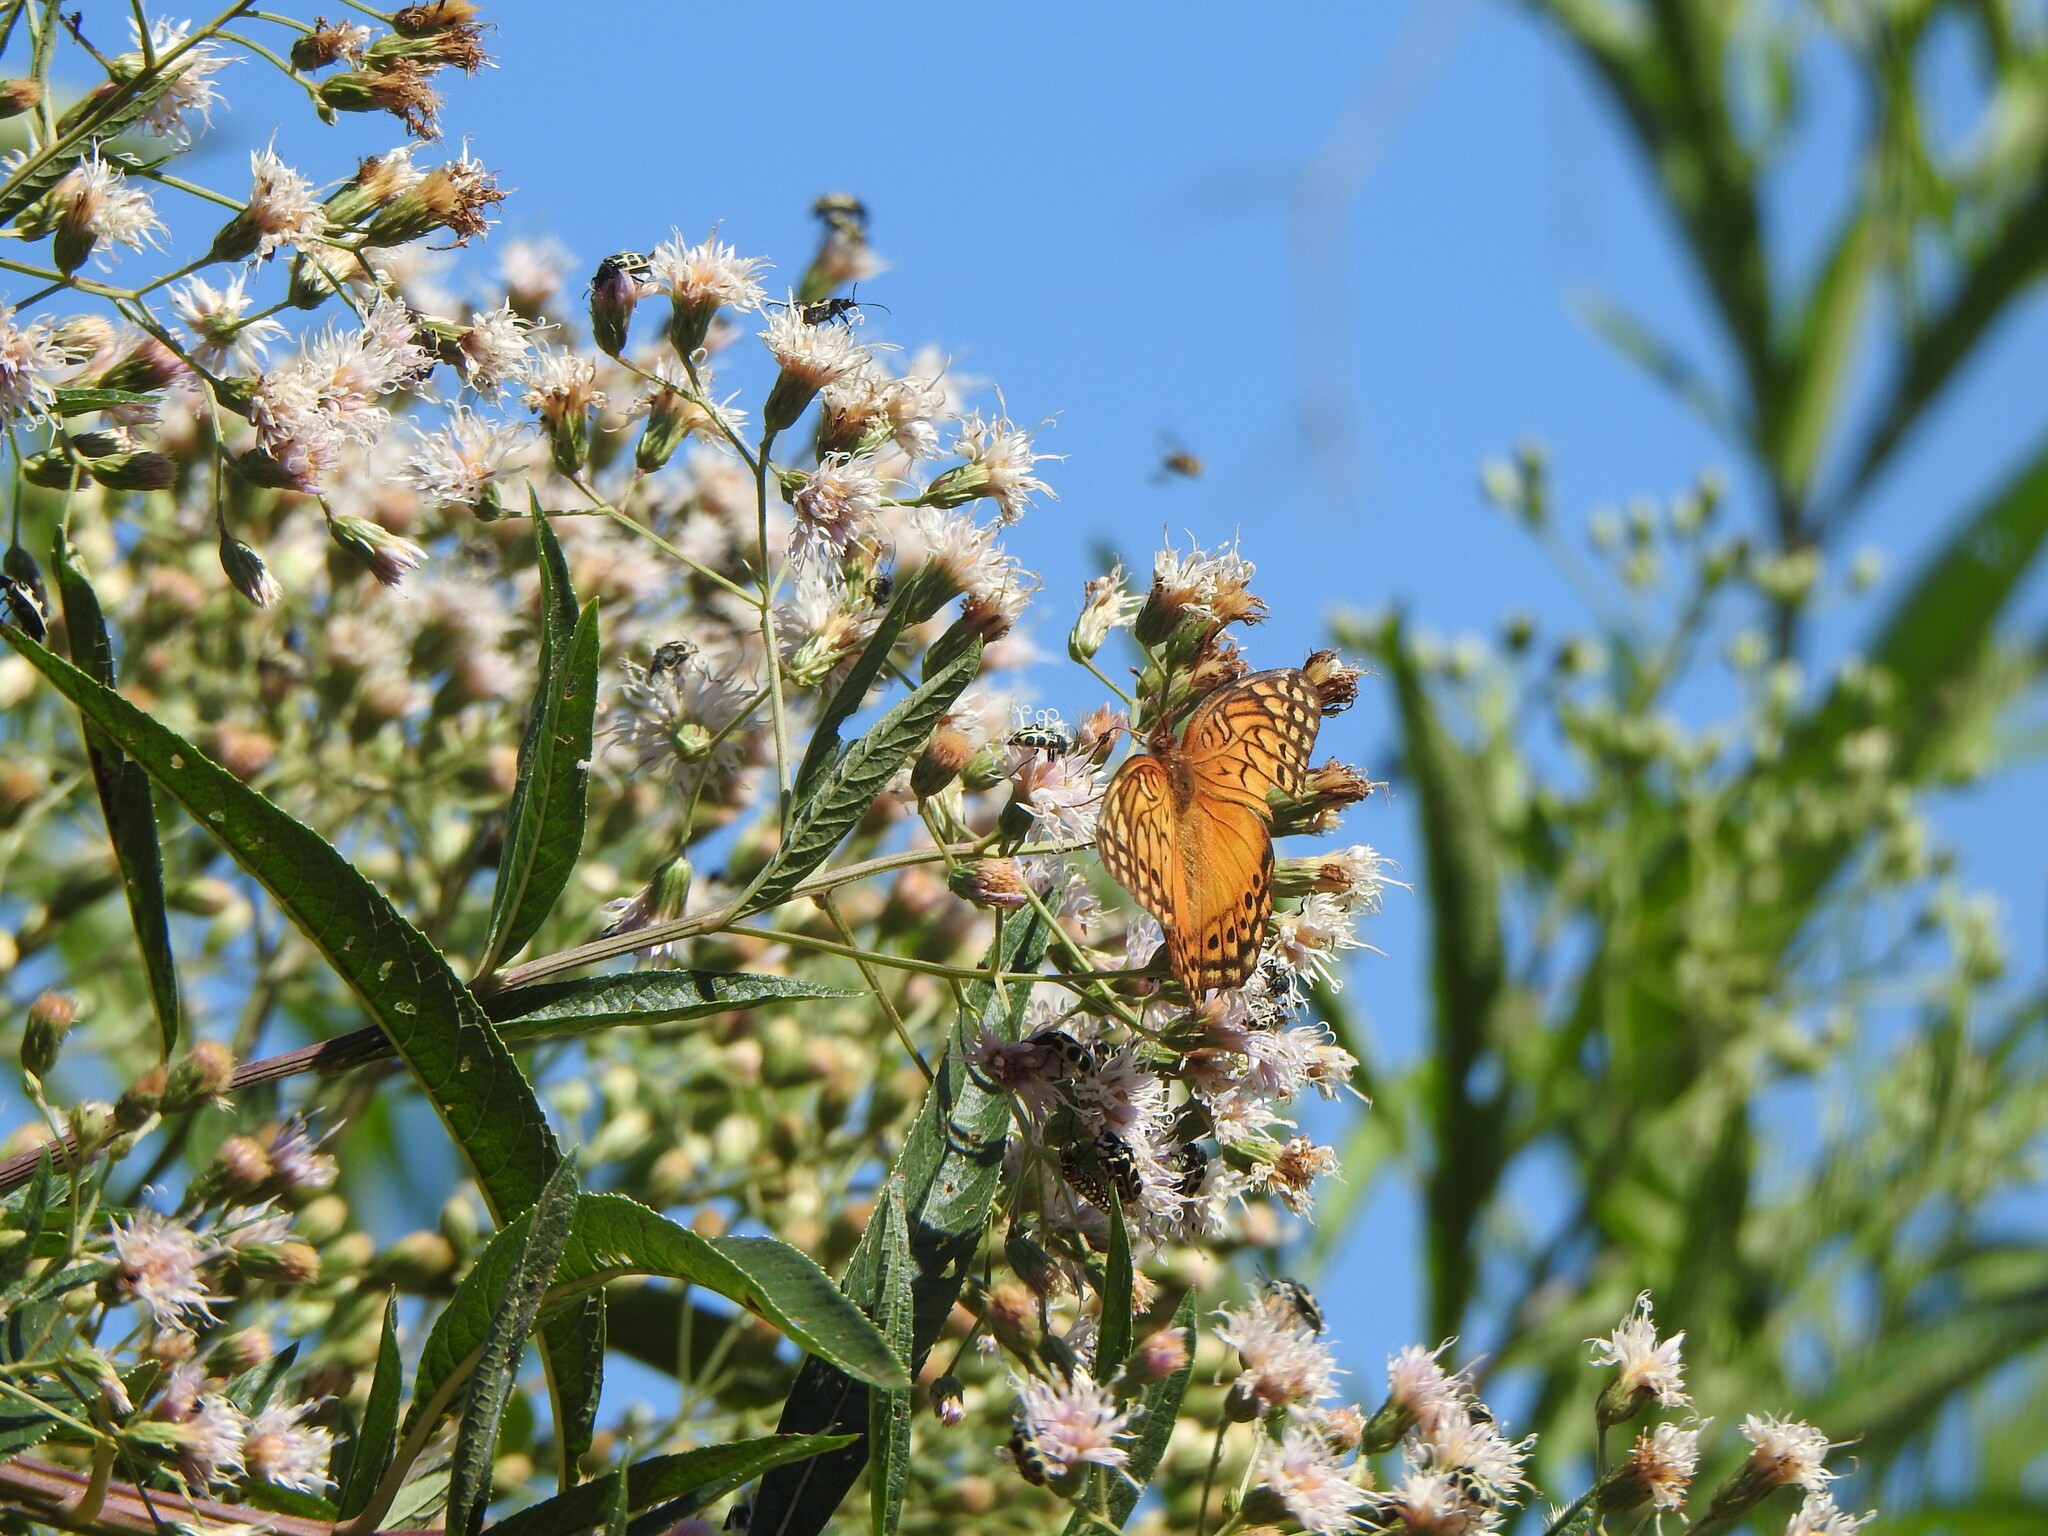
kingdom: Animalia
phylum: Arthropoda
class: Insecta
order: Lepidoptera
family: Nymphalidae
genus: Euptoieta
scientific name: Euptoieta hegesia
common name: Mexican fritillary
